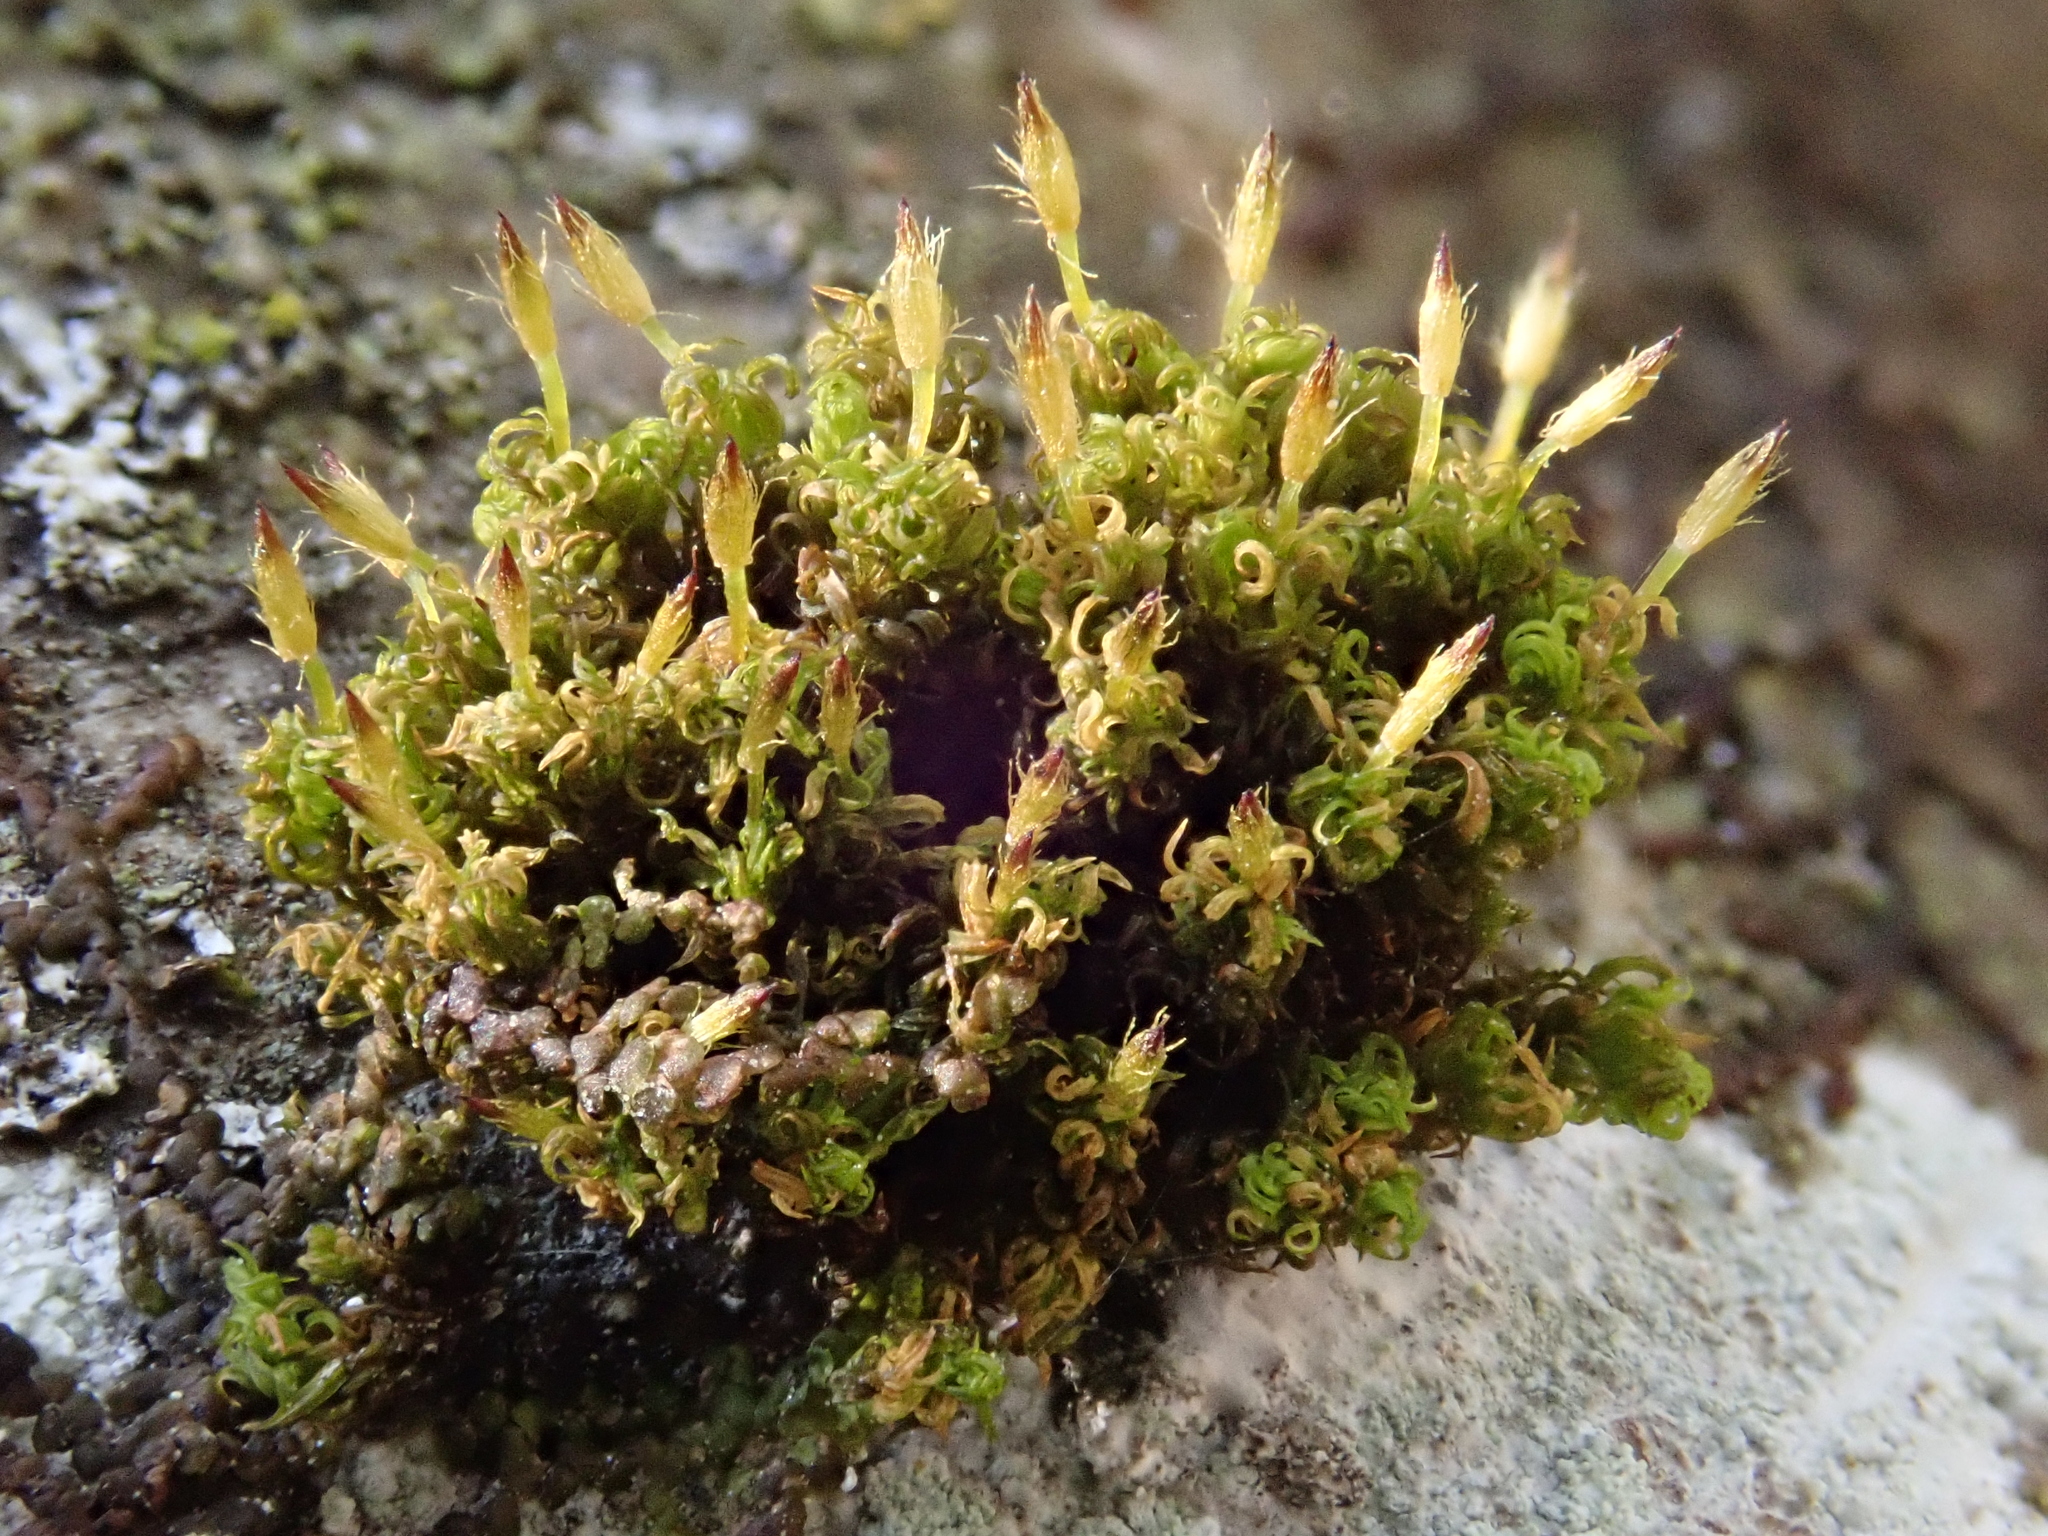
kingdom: Plantae
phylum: Bryophyta
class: Bryopsida
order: Orthotrichales
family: Orthotrichaceae
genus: Ulota
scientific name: Ulota crispa
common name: Crisped pincushion moss
